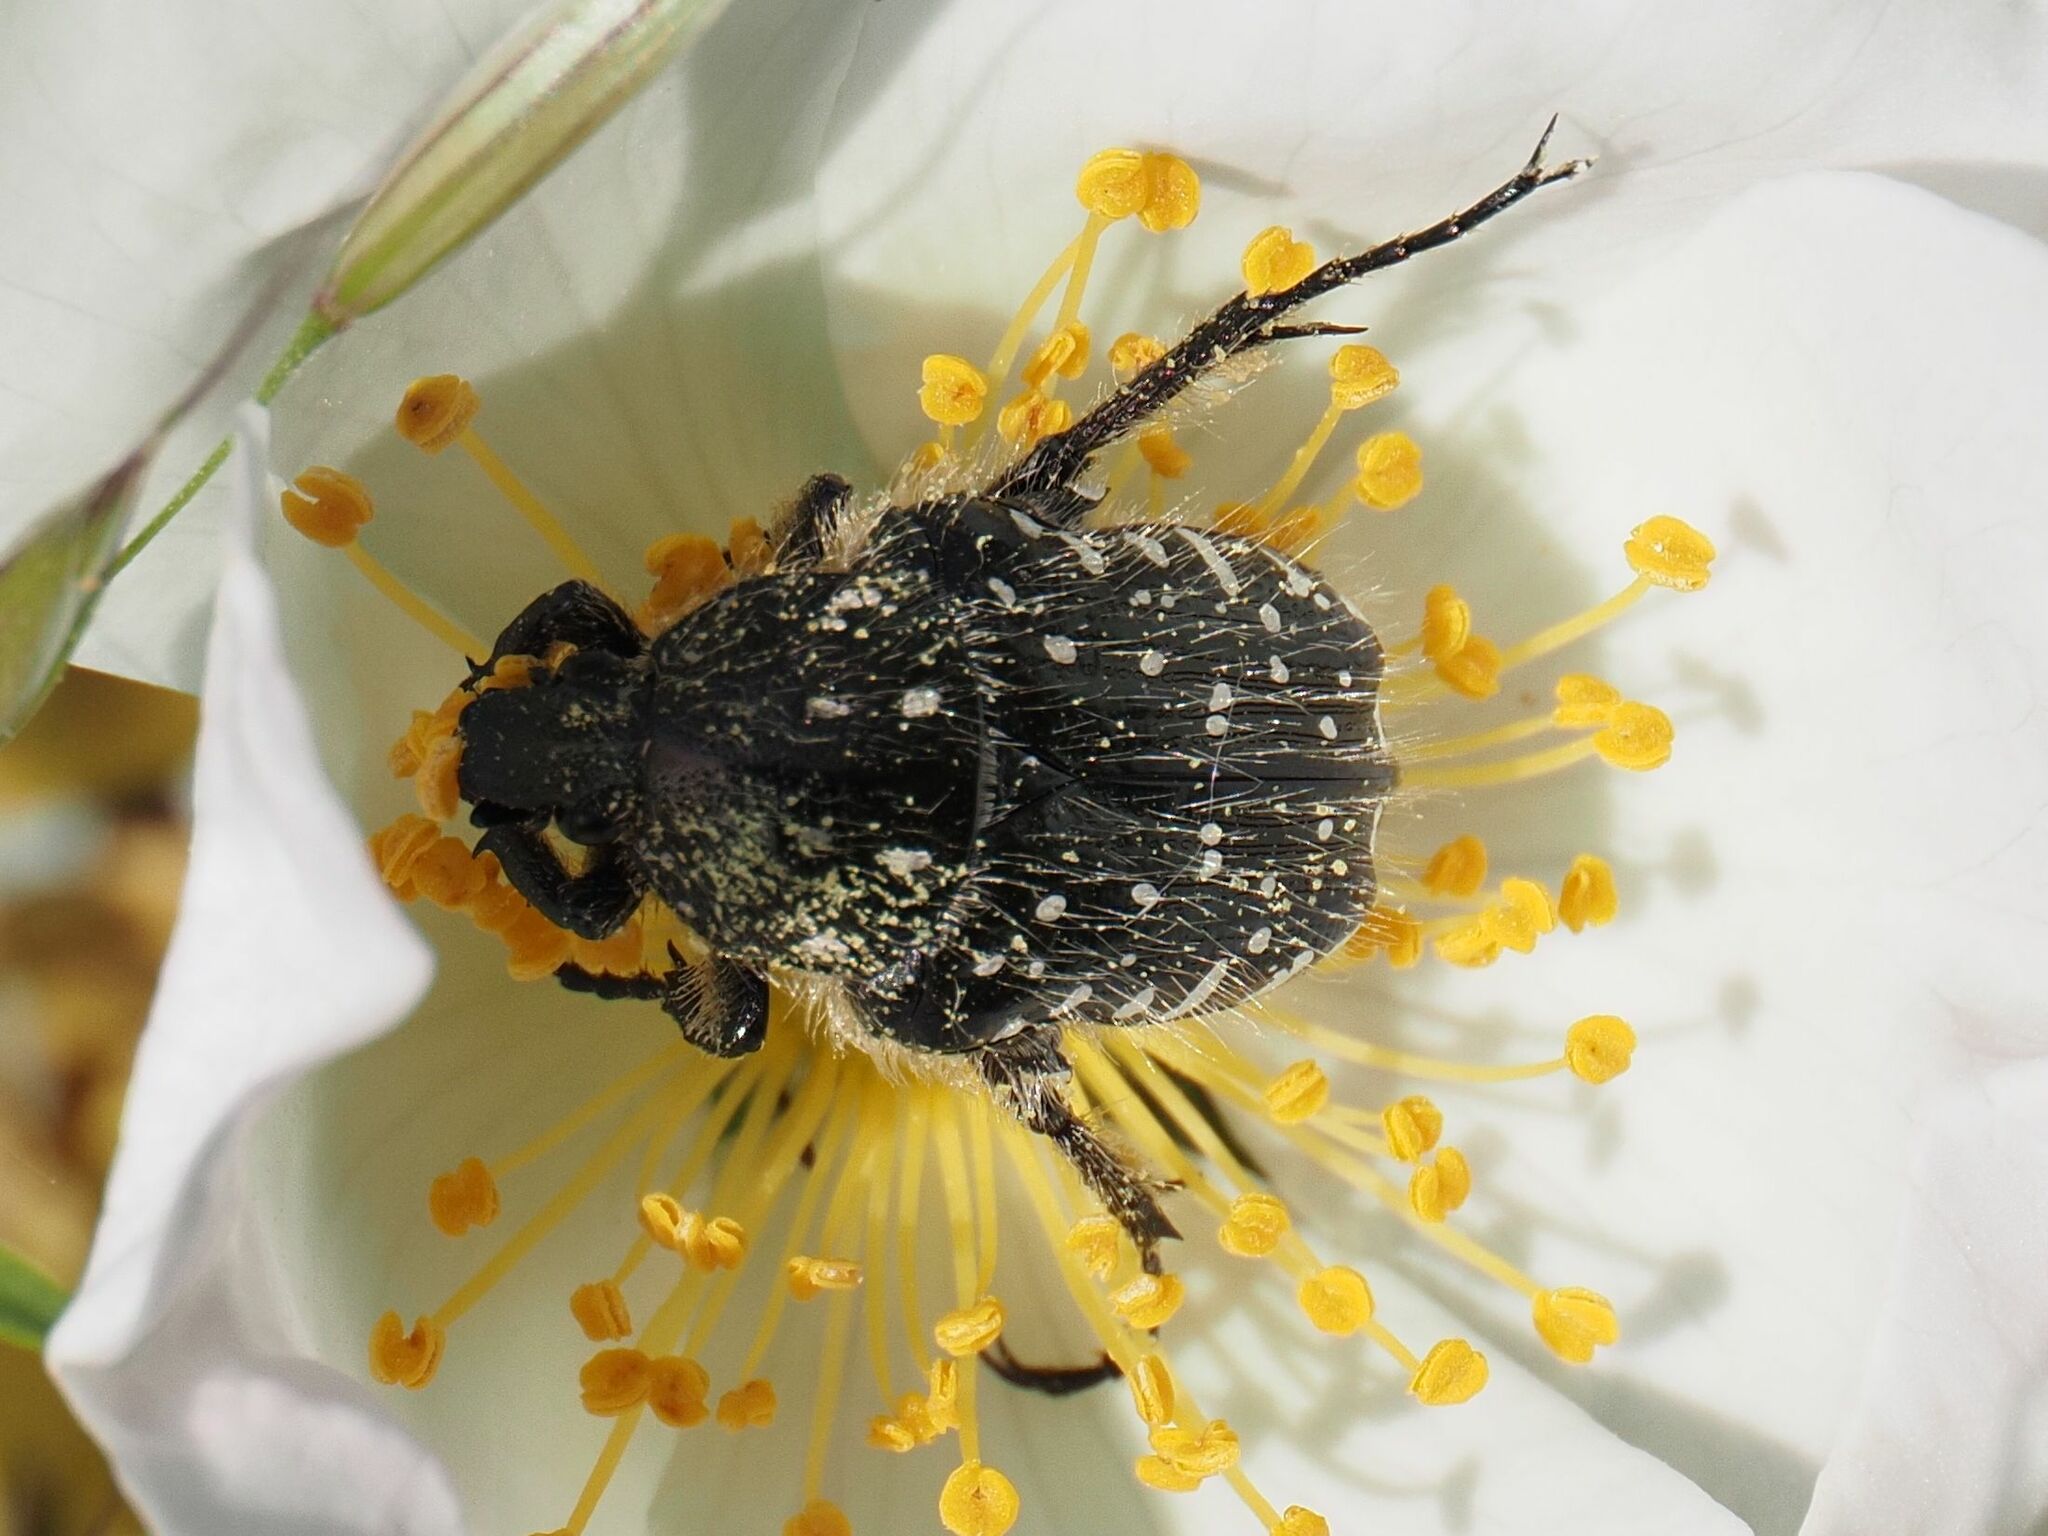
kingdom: Animalia
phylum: Arthropoda
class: Insecta
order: Coleoptera
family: Scarabaeidae
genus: Oxythyrea
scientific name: Oxythyrea funesta
